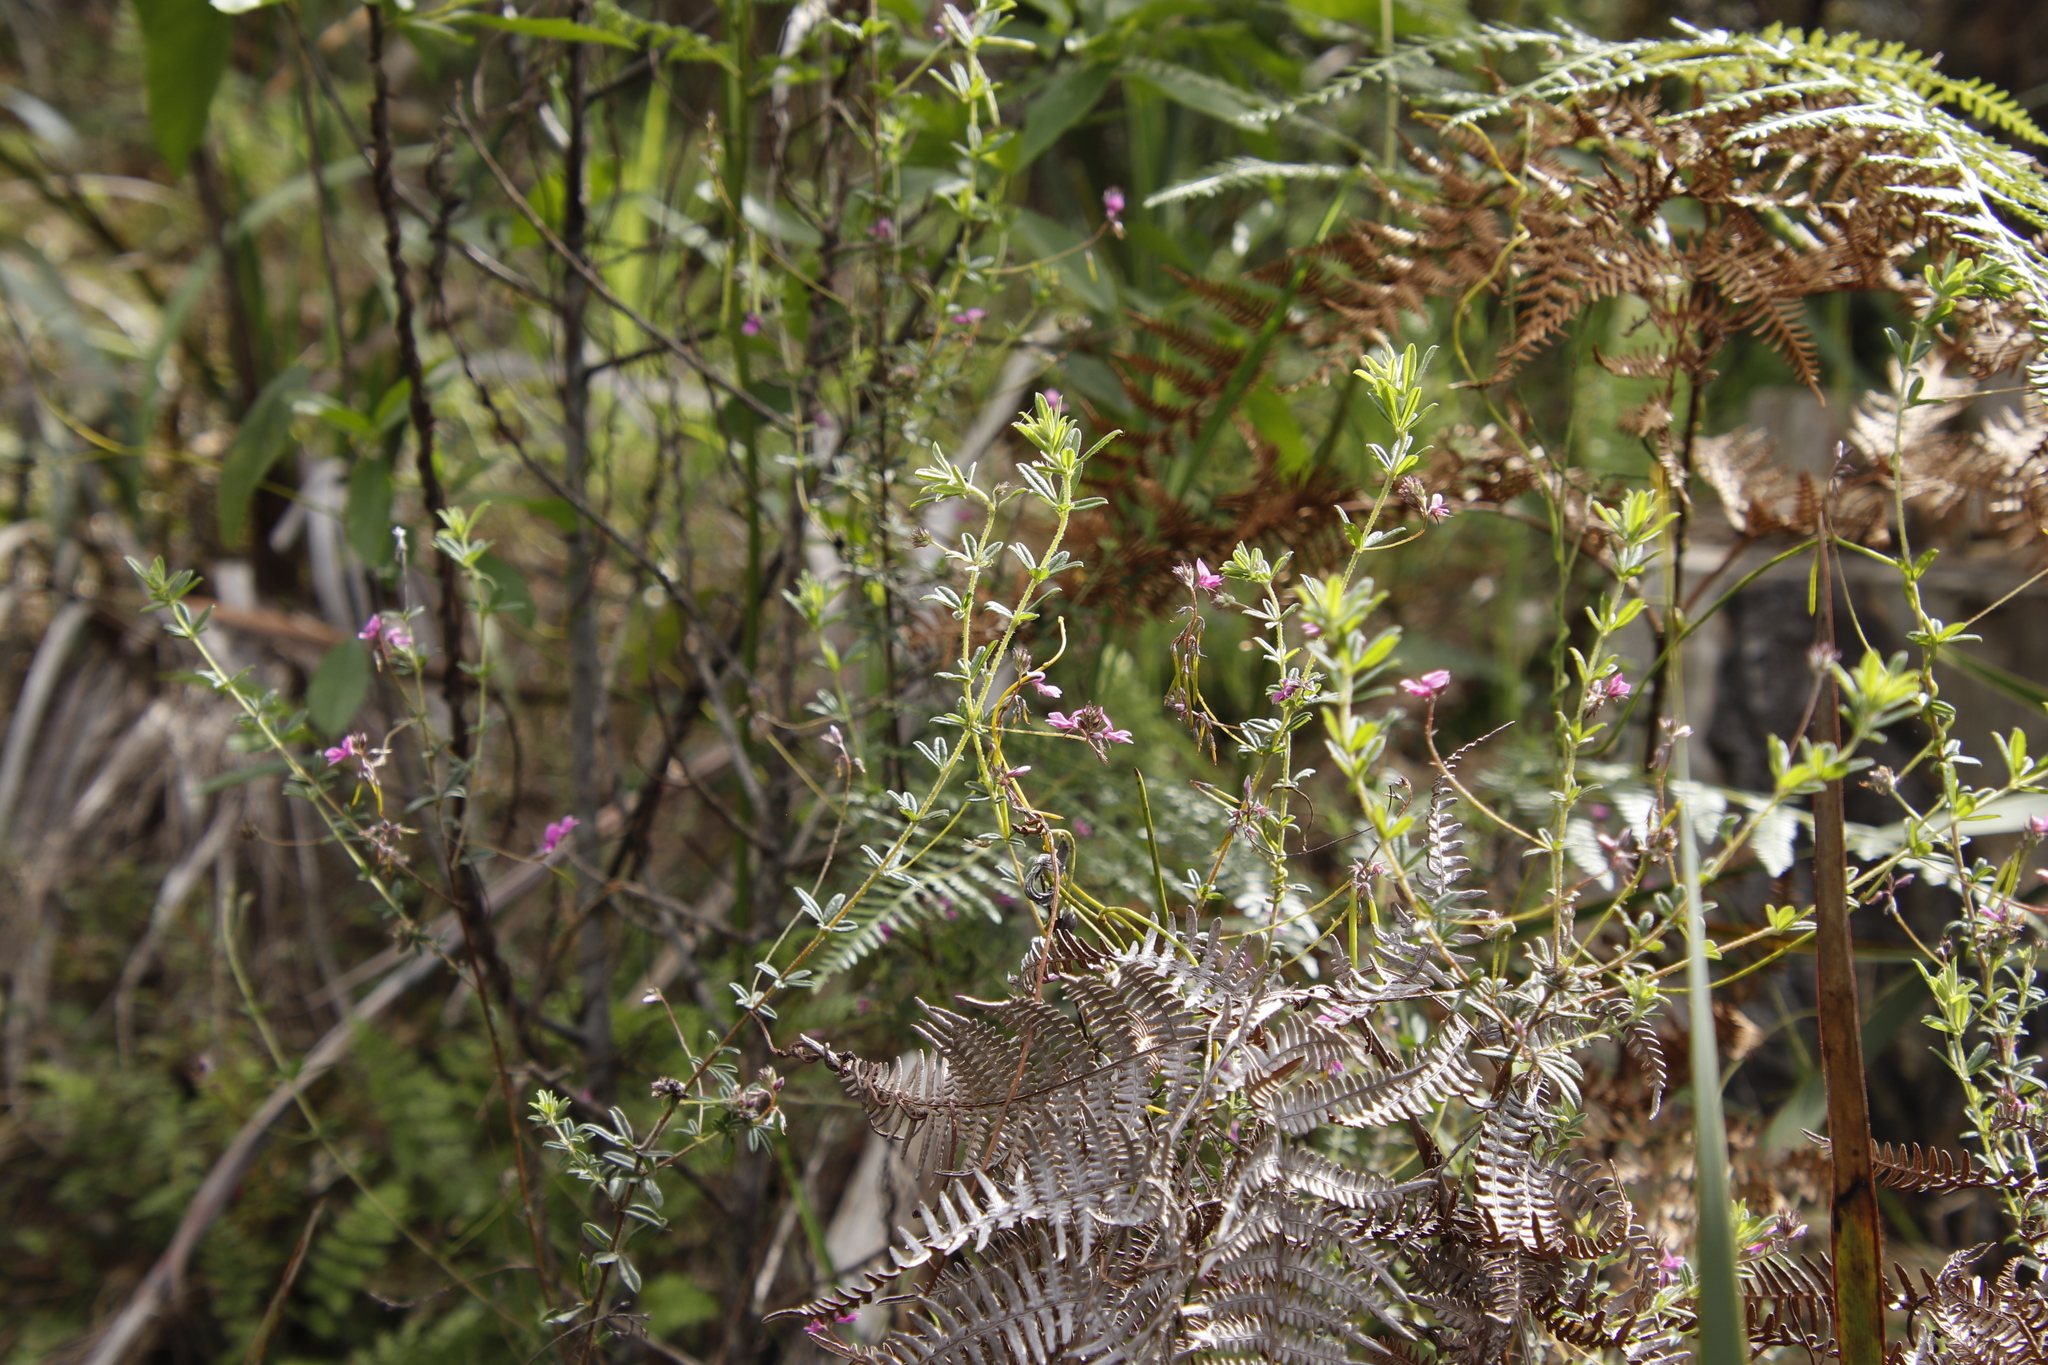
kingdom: Plantae
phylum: Tracheophyta
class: Magnoliopsida
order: Fabales
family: Fabaceae
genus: Indigofera
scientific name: Indigofera filiformis
